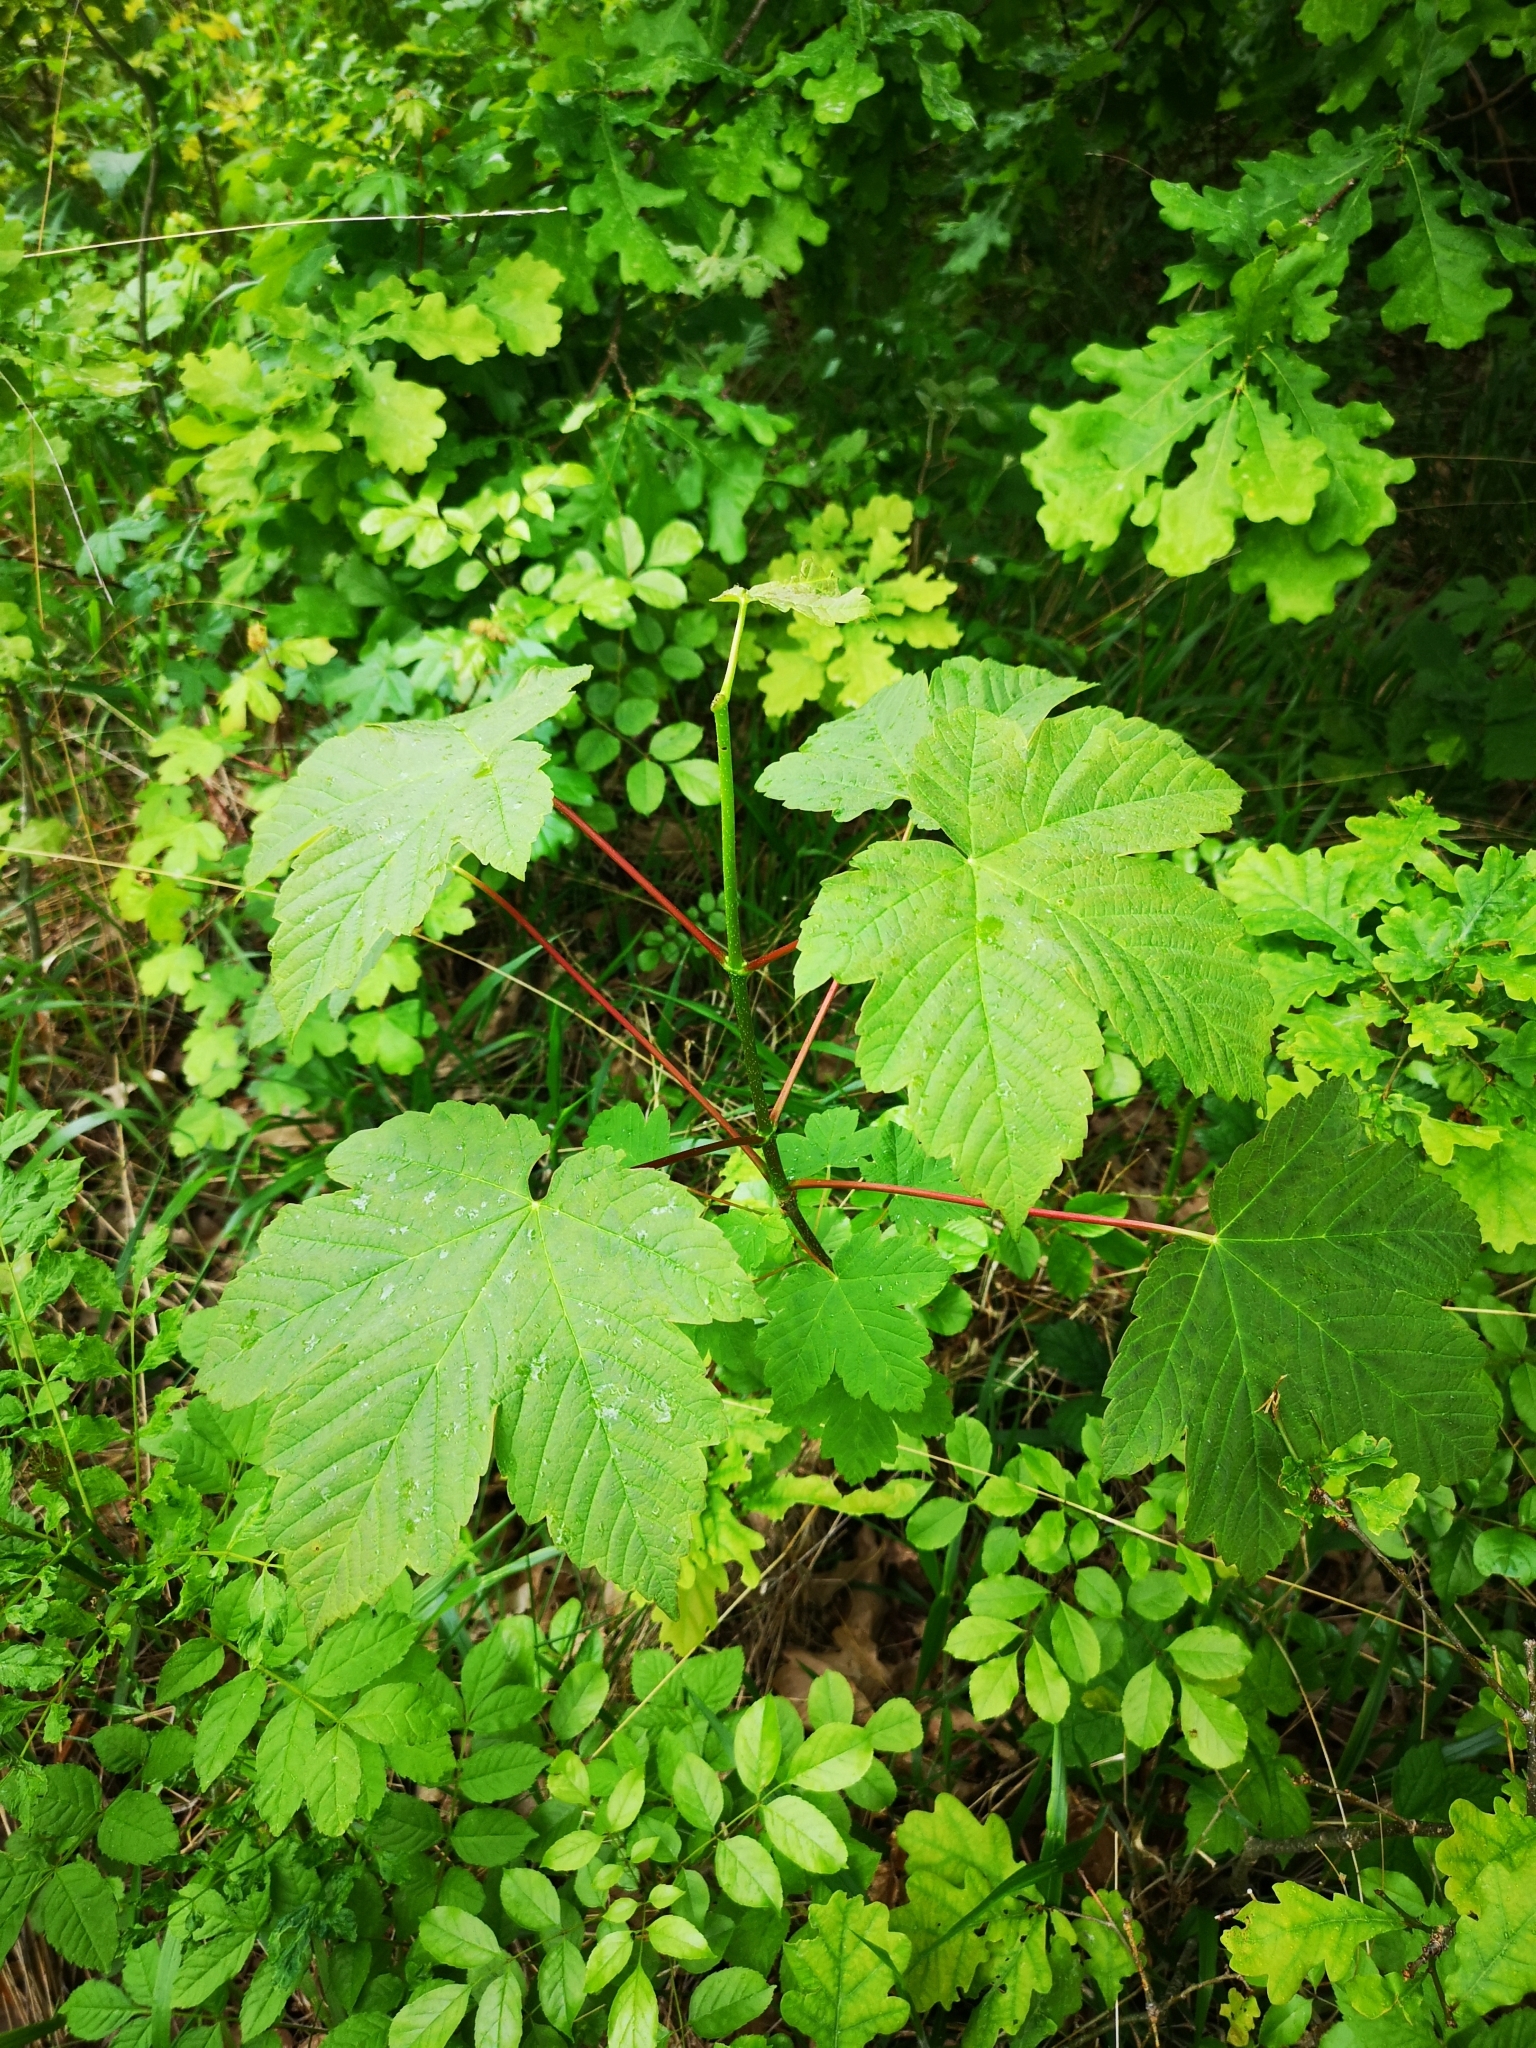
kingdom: Plantae
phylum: Tracheophyta
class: Magnoliopsida
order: Sapindales
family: Sapindaceae
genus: Acer
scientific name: Acer pseudoplatanus
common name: Sycamore
